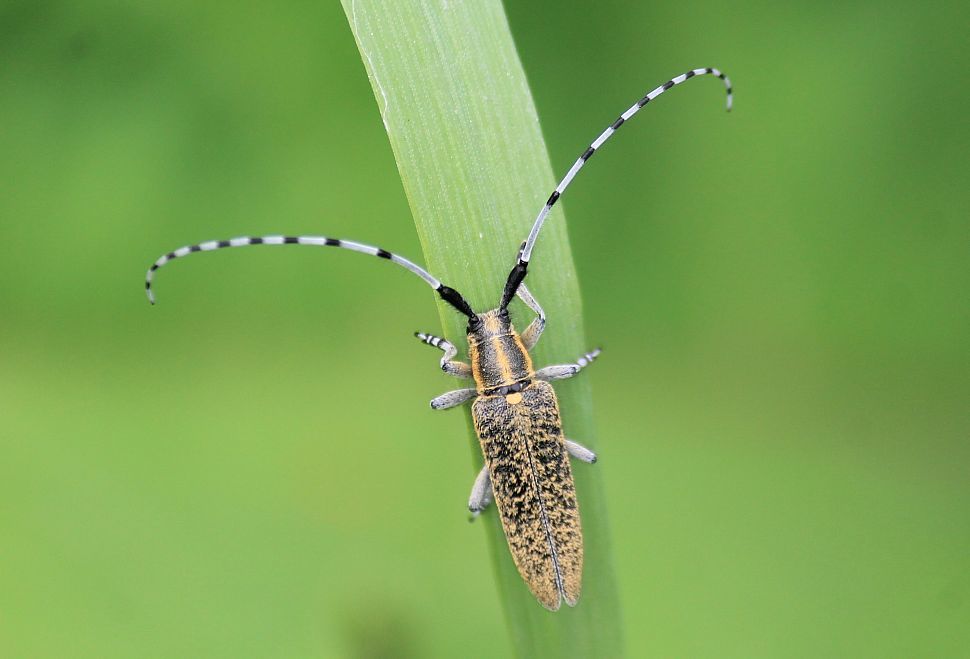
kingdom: Animalia
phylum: Arthropoda
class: Insecta
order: Coleoptera
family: Cerambycidae
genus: Agapanthia
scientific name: Agapanthia villosoviridescens
